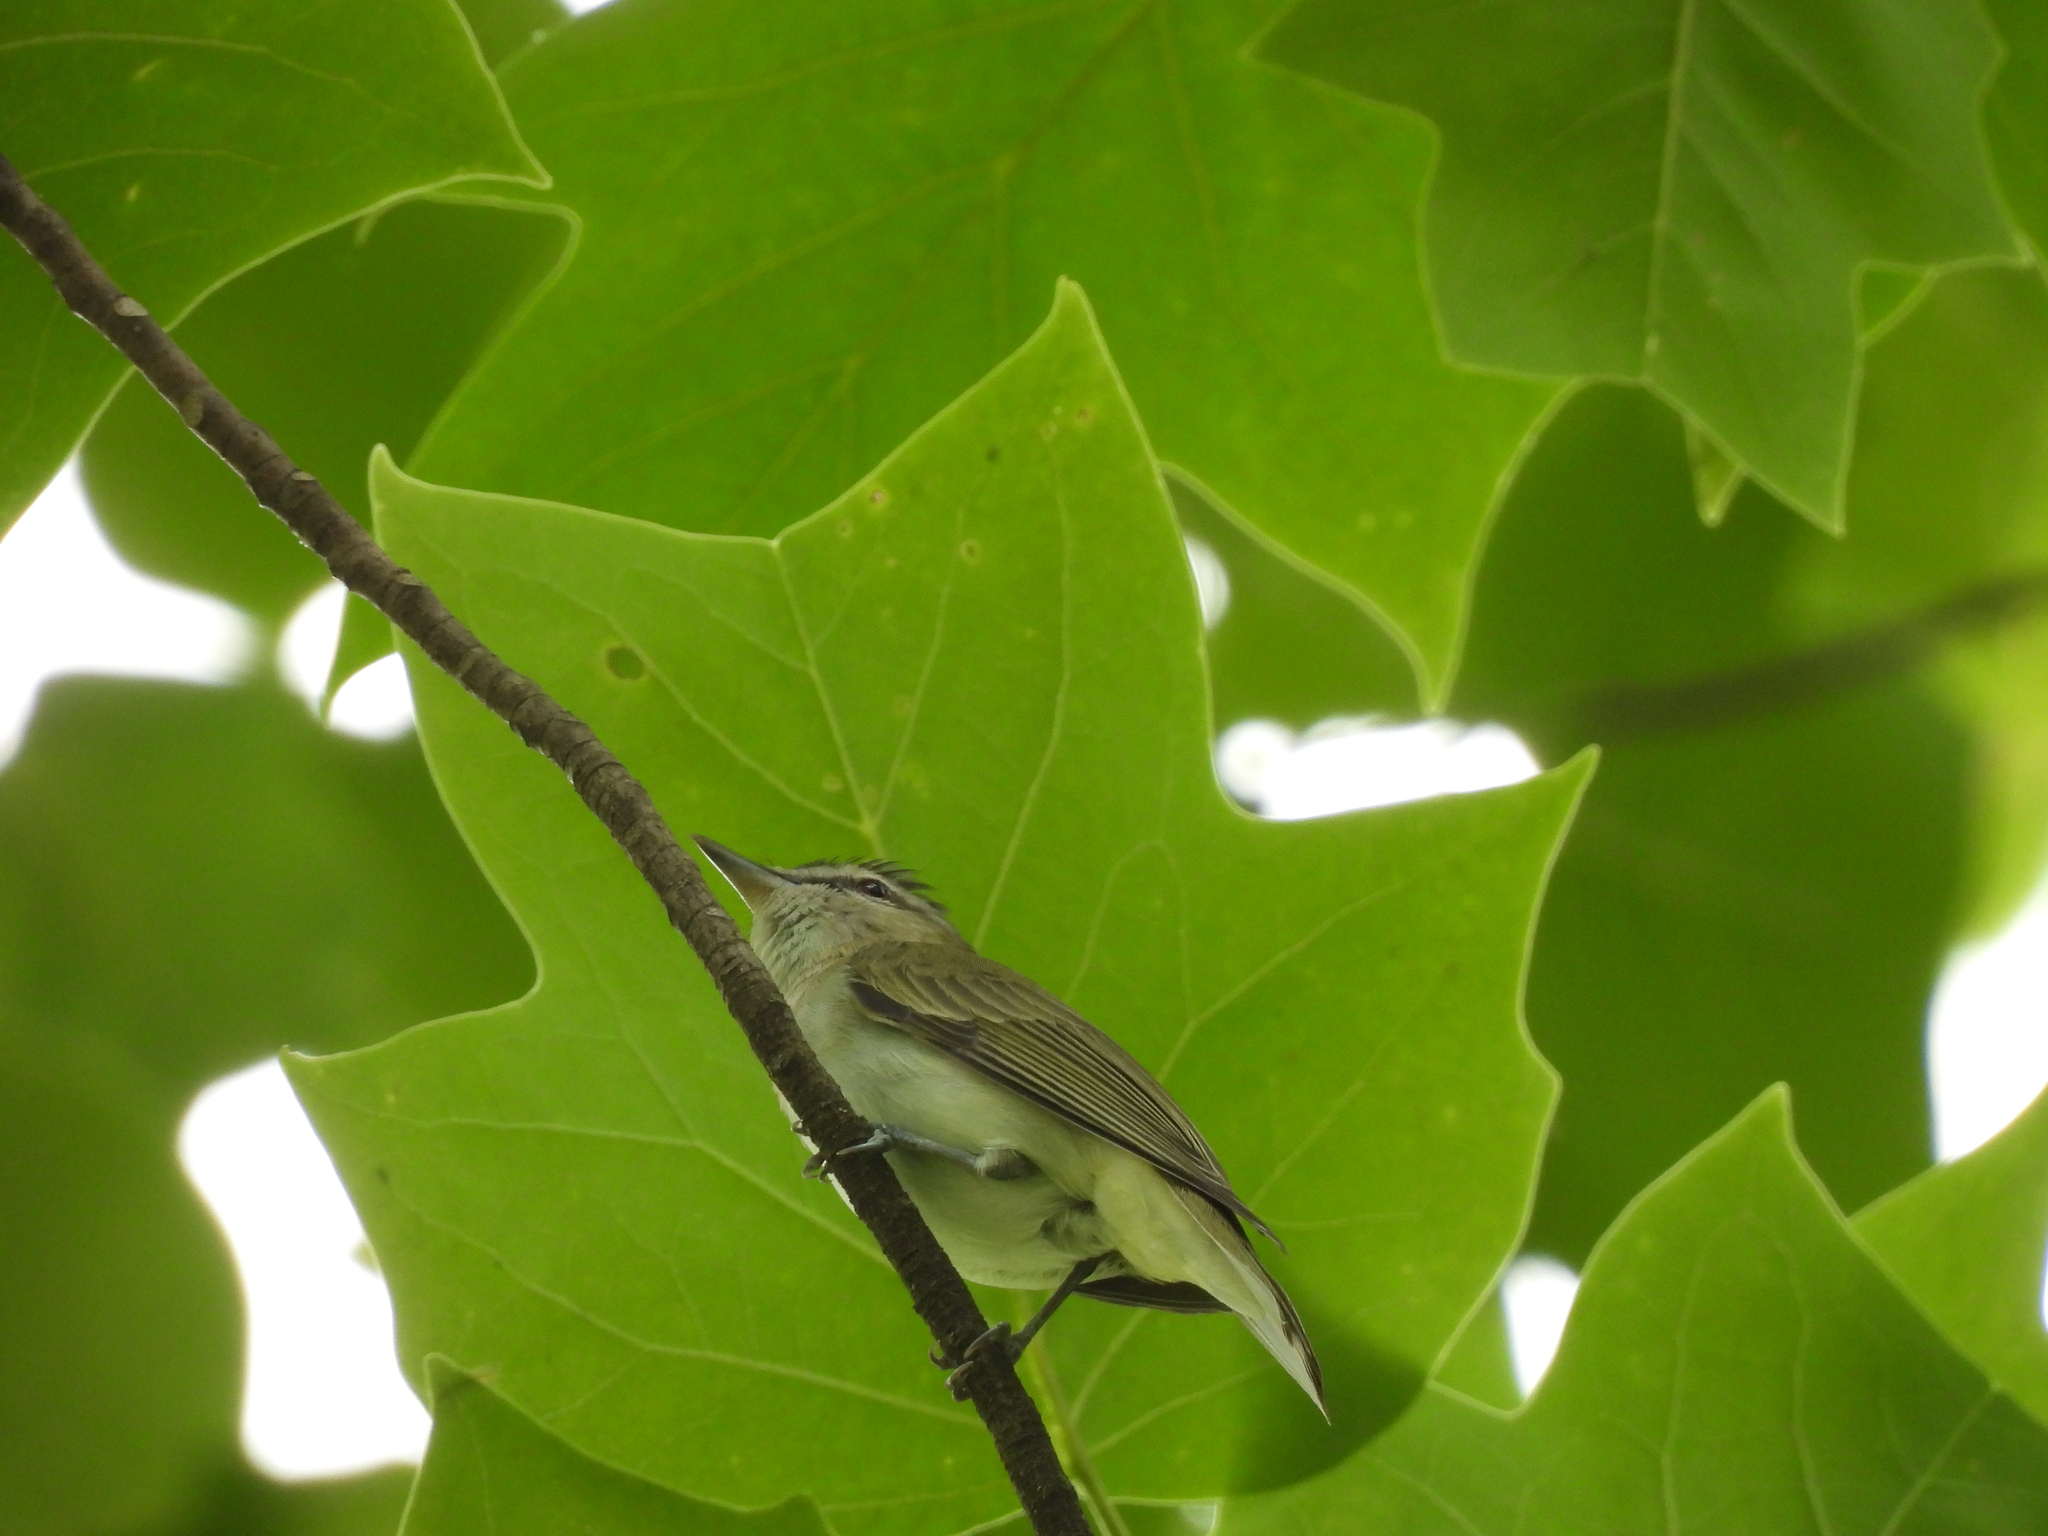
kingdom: Animalia
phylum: Chordata
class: Aves
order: Passeriformes
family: Vireonidae
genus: Vireo
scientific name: Vireo olivaceus
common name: Red-eyed vireo
